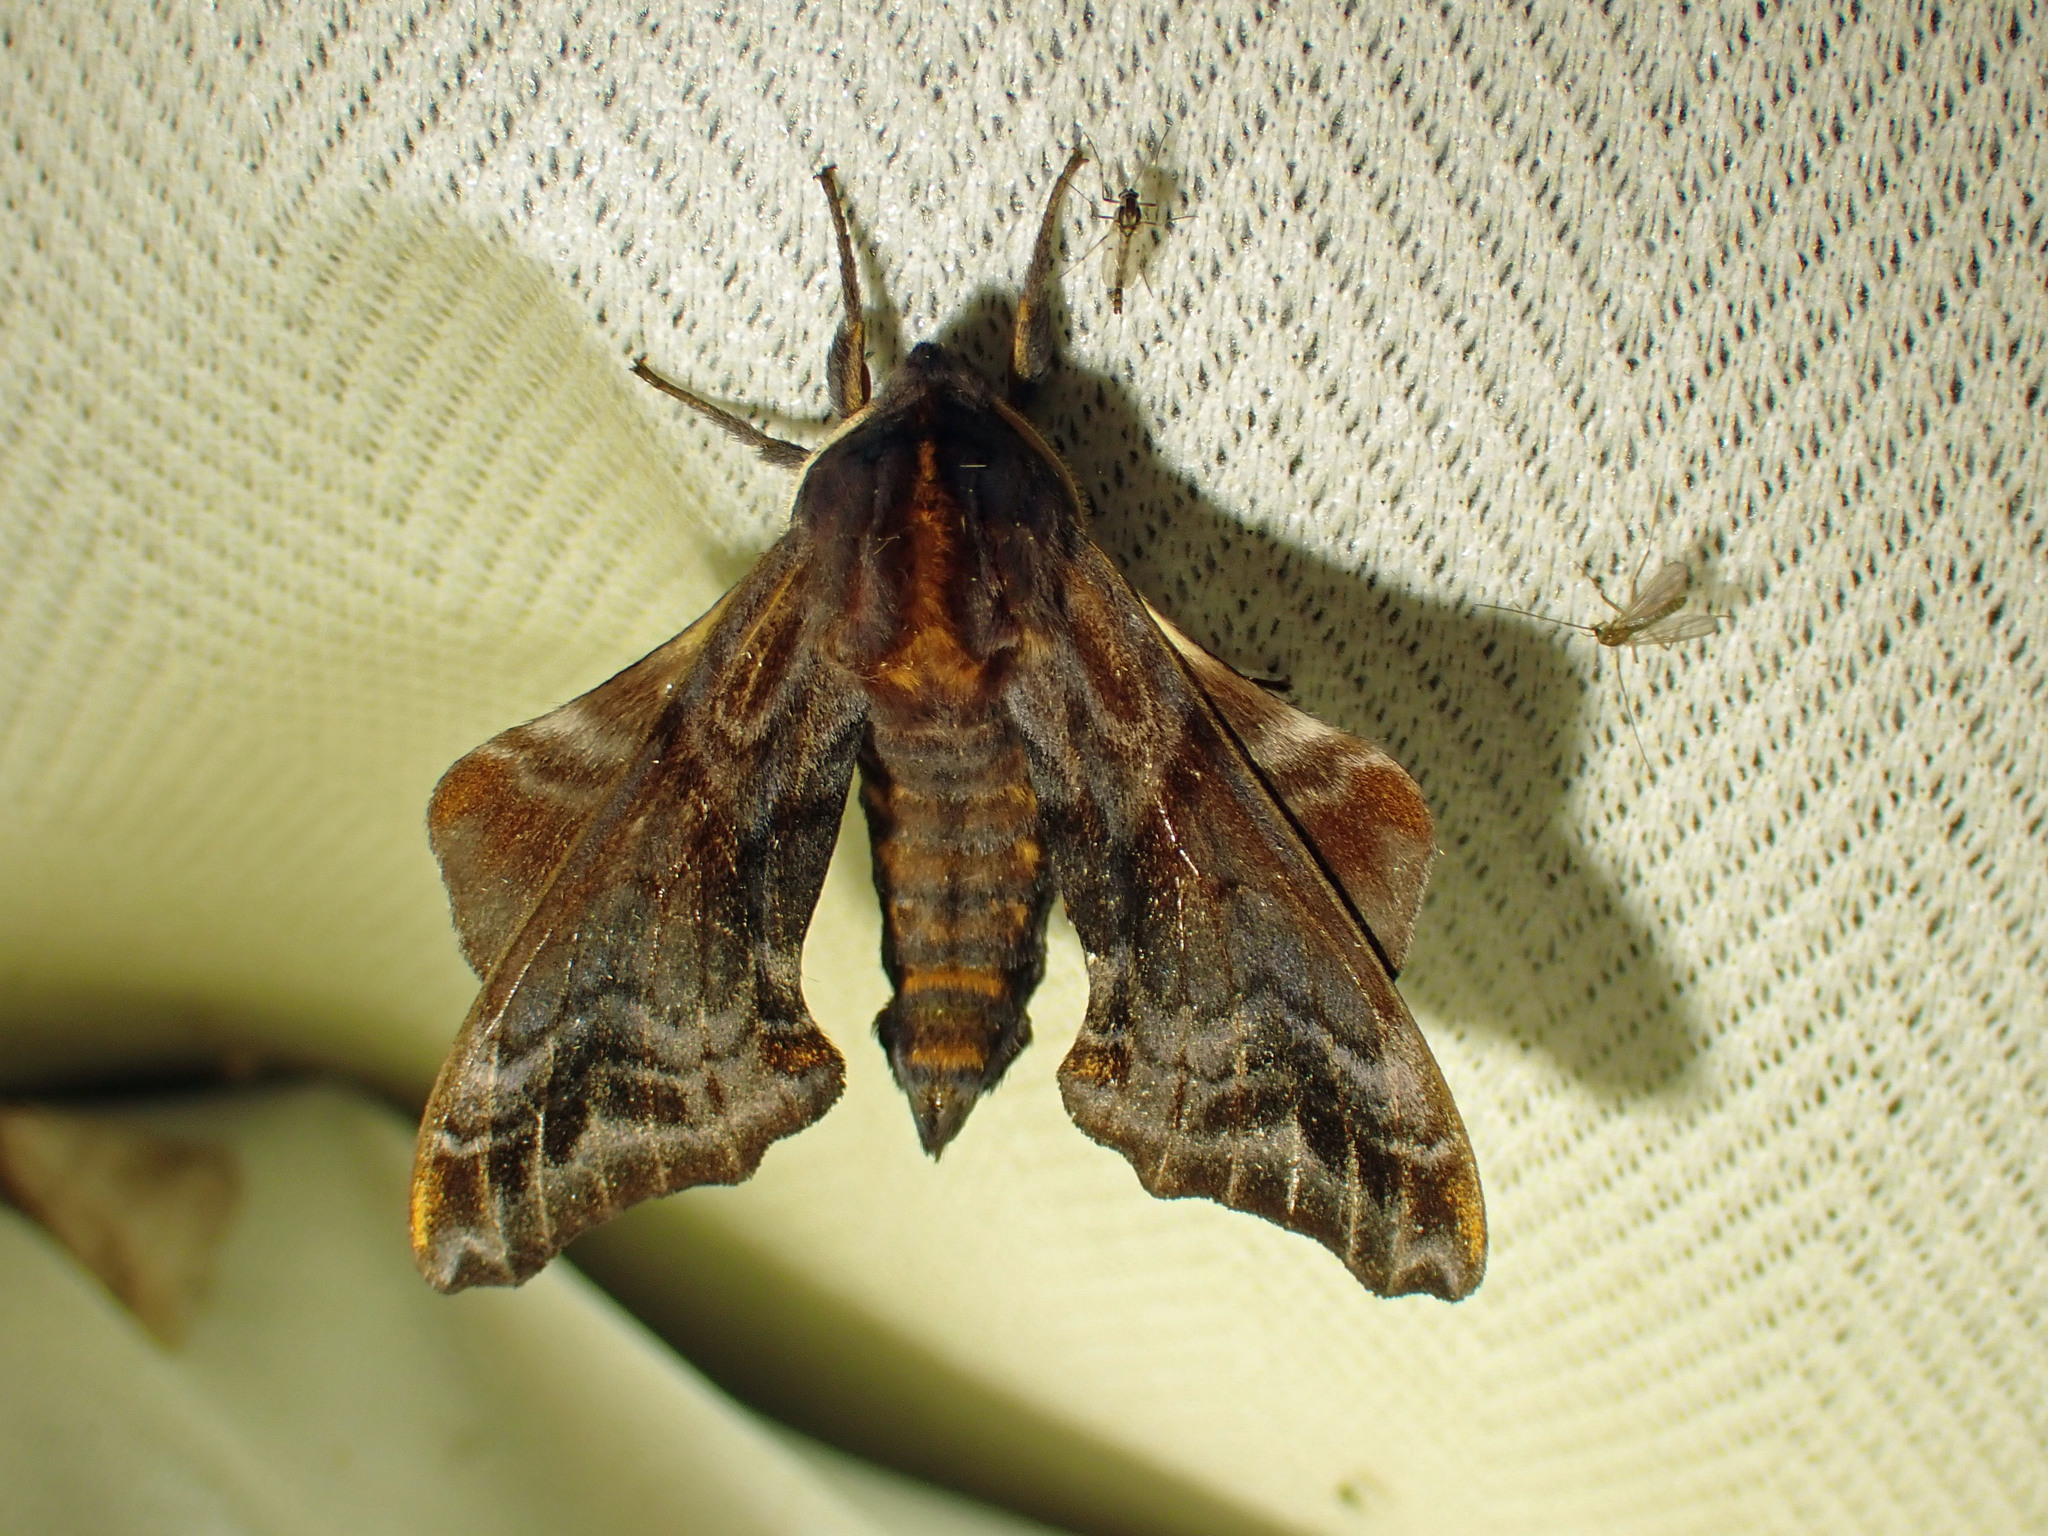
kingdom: Animalia
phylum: Arthropoda
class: Insecta
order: Lepidoptera
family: Sphingidae
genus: Paonias
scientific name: Paonias myops
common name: Small-eyed sphinx
